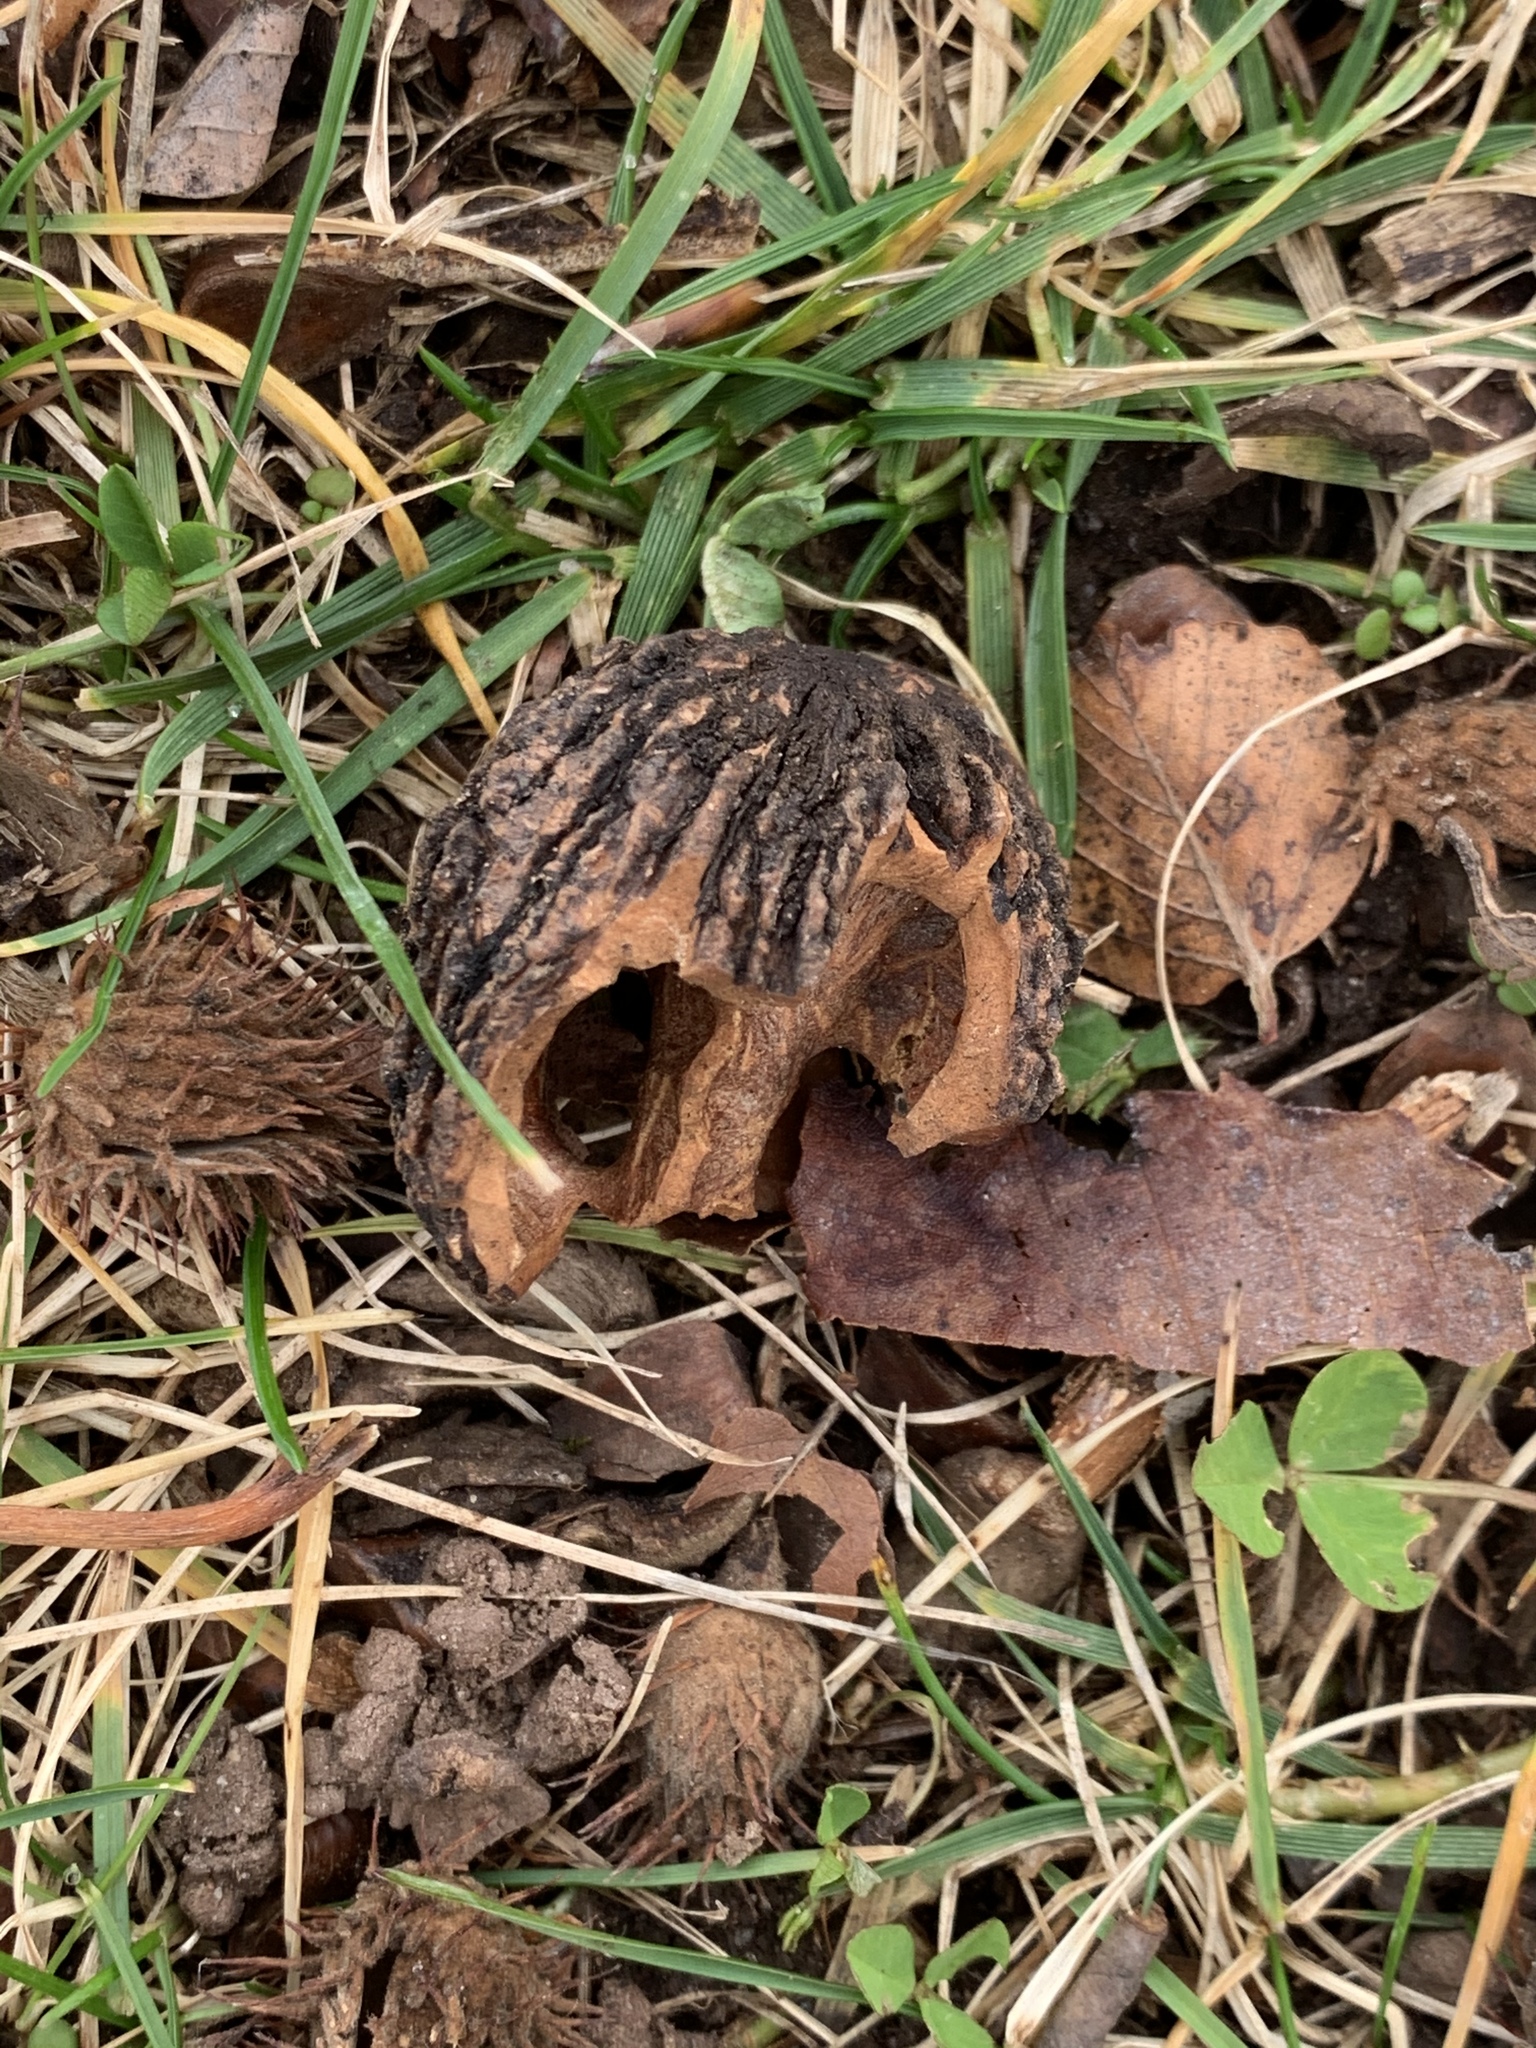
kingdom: Plantae
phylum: Tracheophyta
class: Magnoliopsida
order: Fagales
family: Juglandaceae
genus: Juglans
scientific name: Juglans nigra
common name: Black walnut
